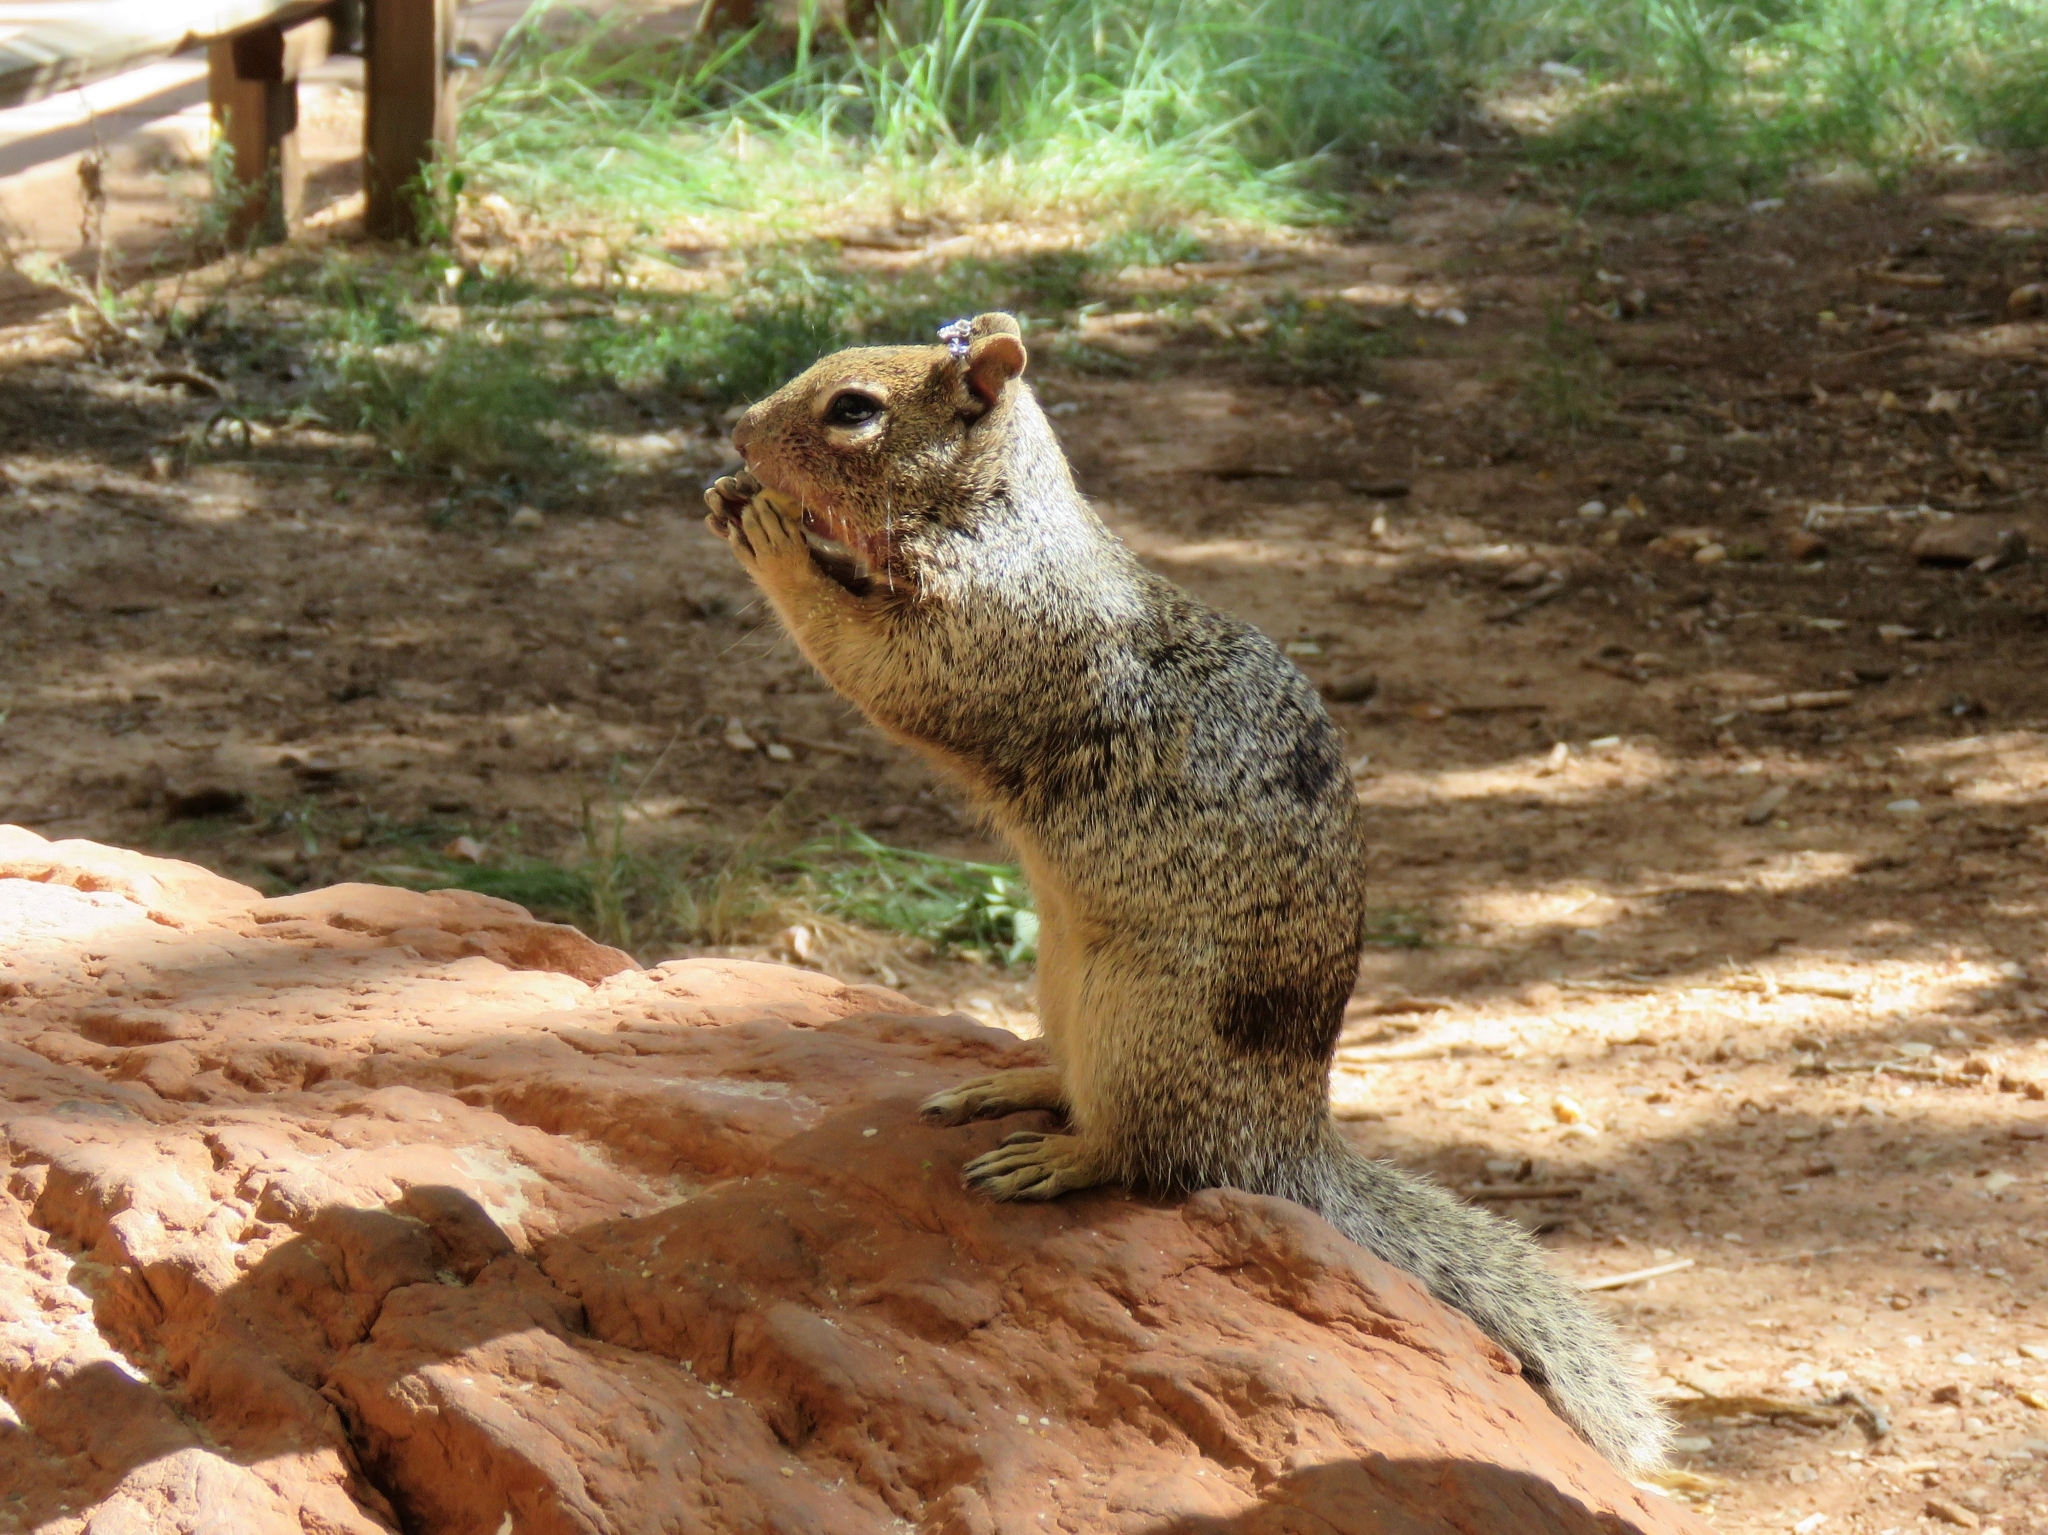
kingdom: Animalia
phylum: Chordata
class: Mammalia
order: Rodentia
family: Sciuridae
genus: Otospermophilus
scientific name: Otospermophilus variegatus
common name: Rock squirrel
